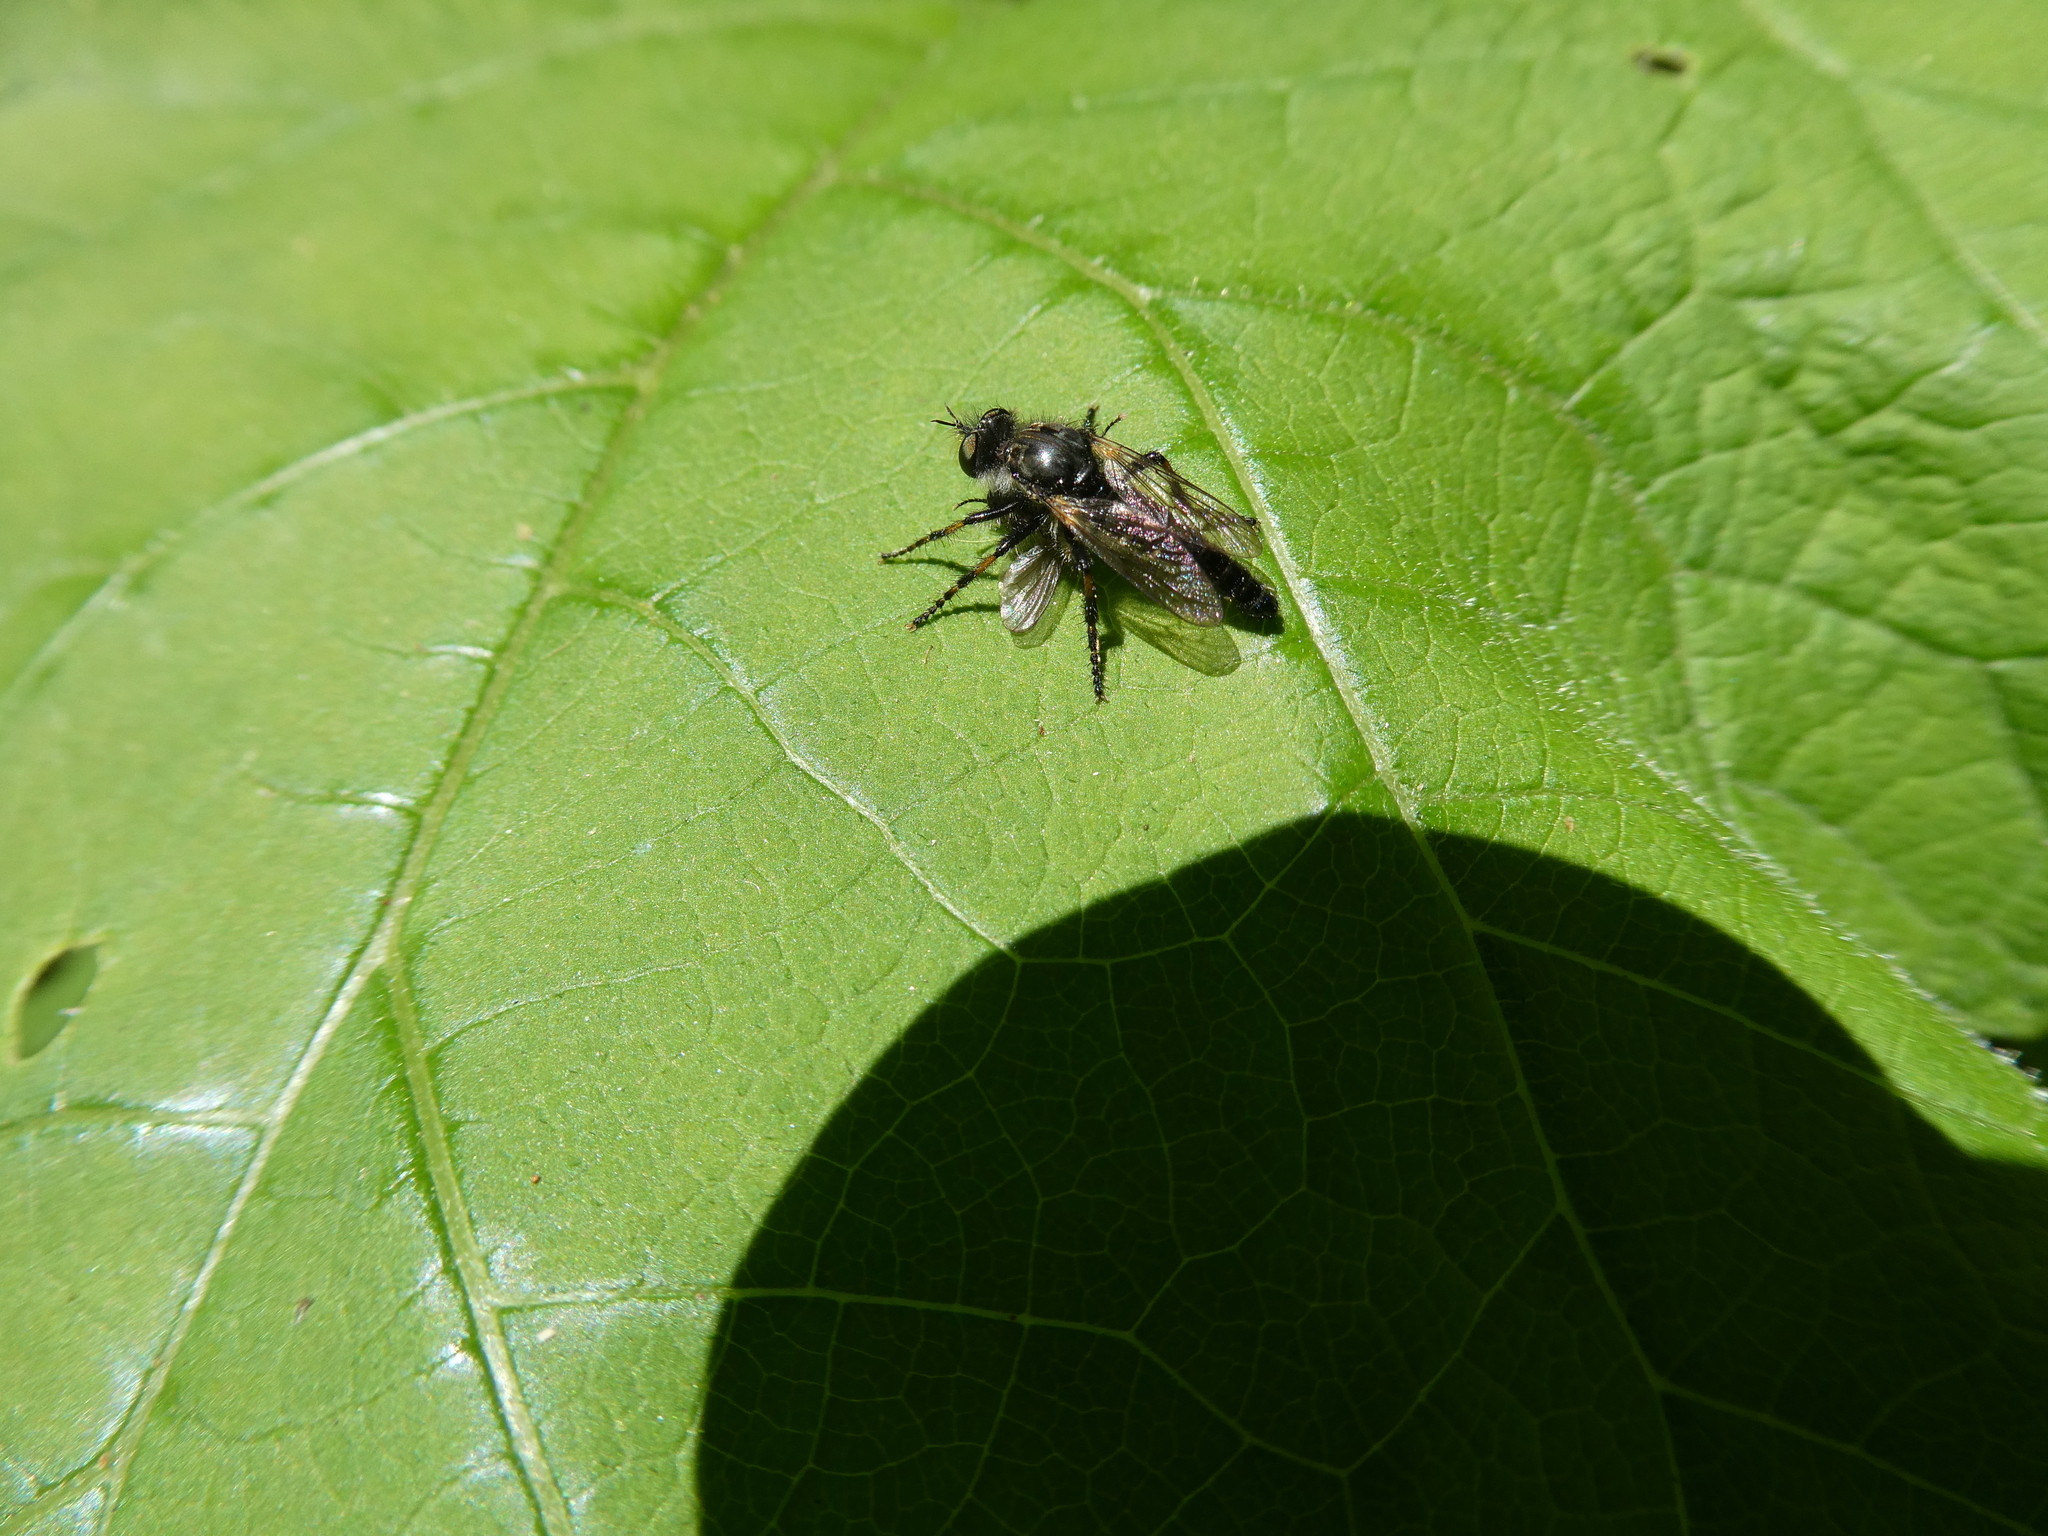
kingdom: Animalia
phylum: Arthropoda
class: Insecta
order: Diptera
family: Asilidae
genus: Cyrtopogon
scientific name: Cyrtopogon falto
